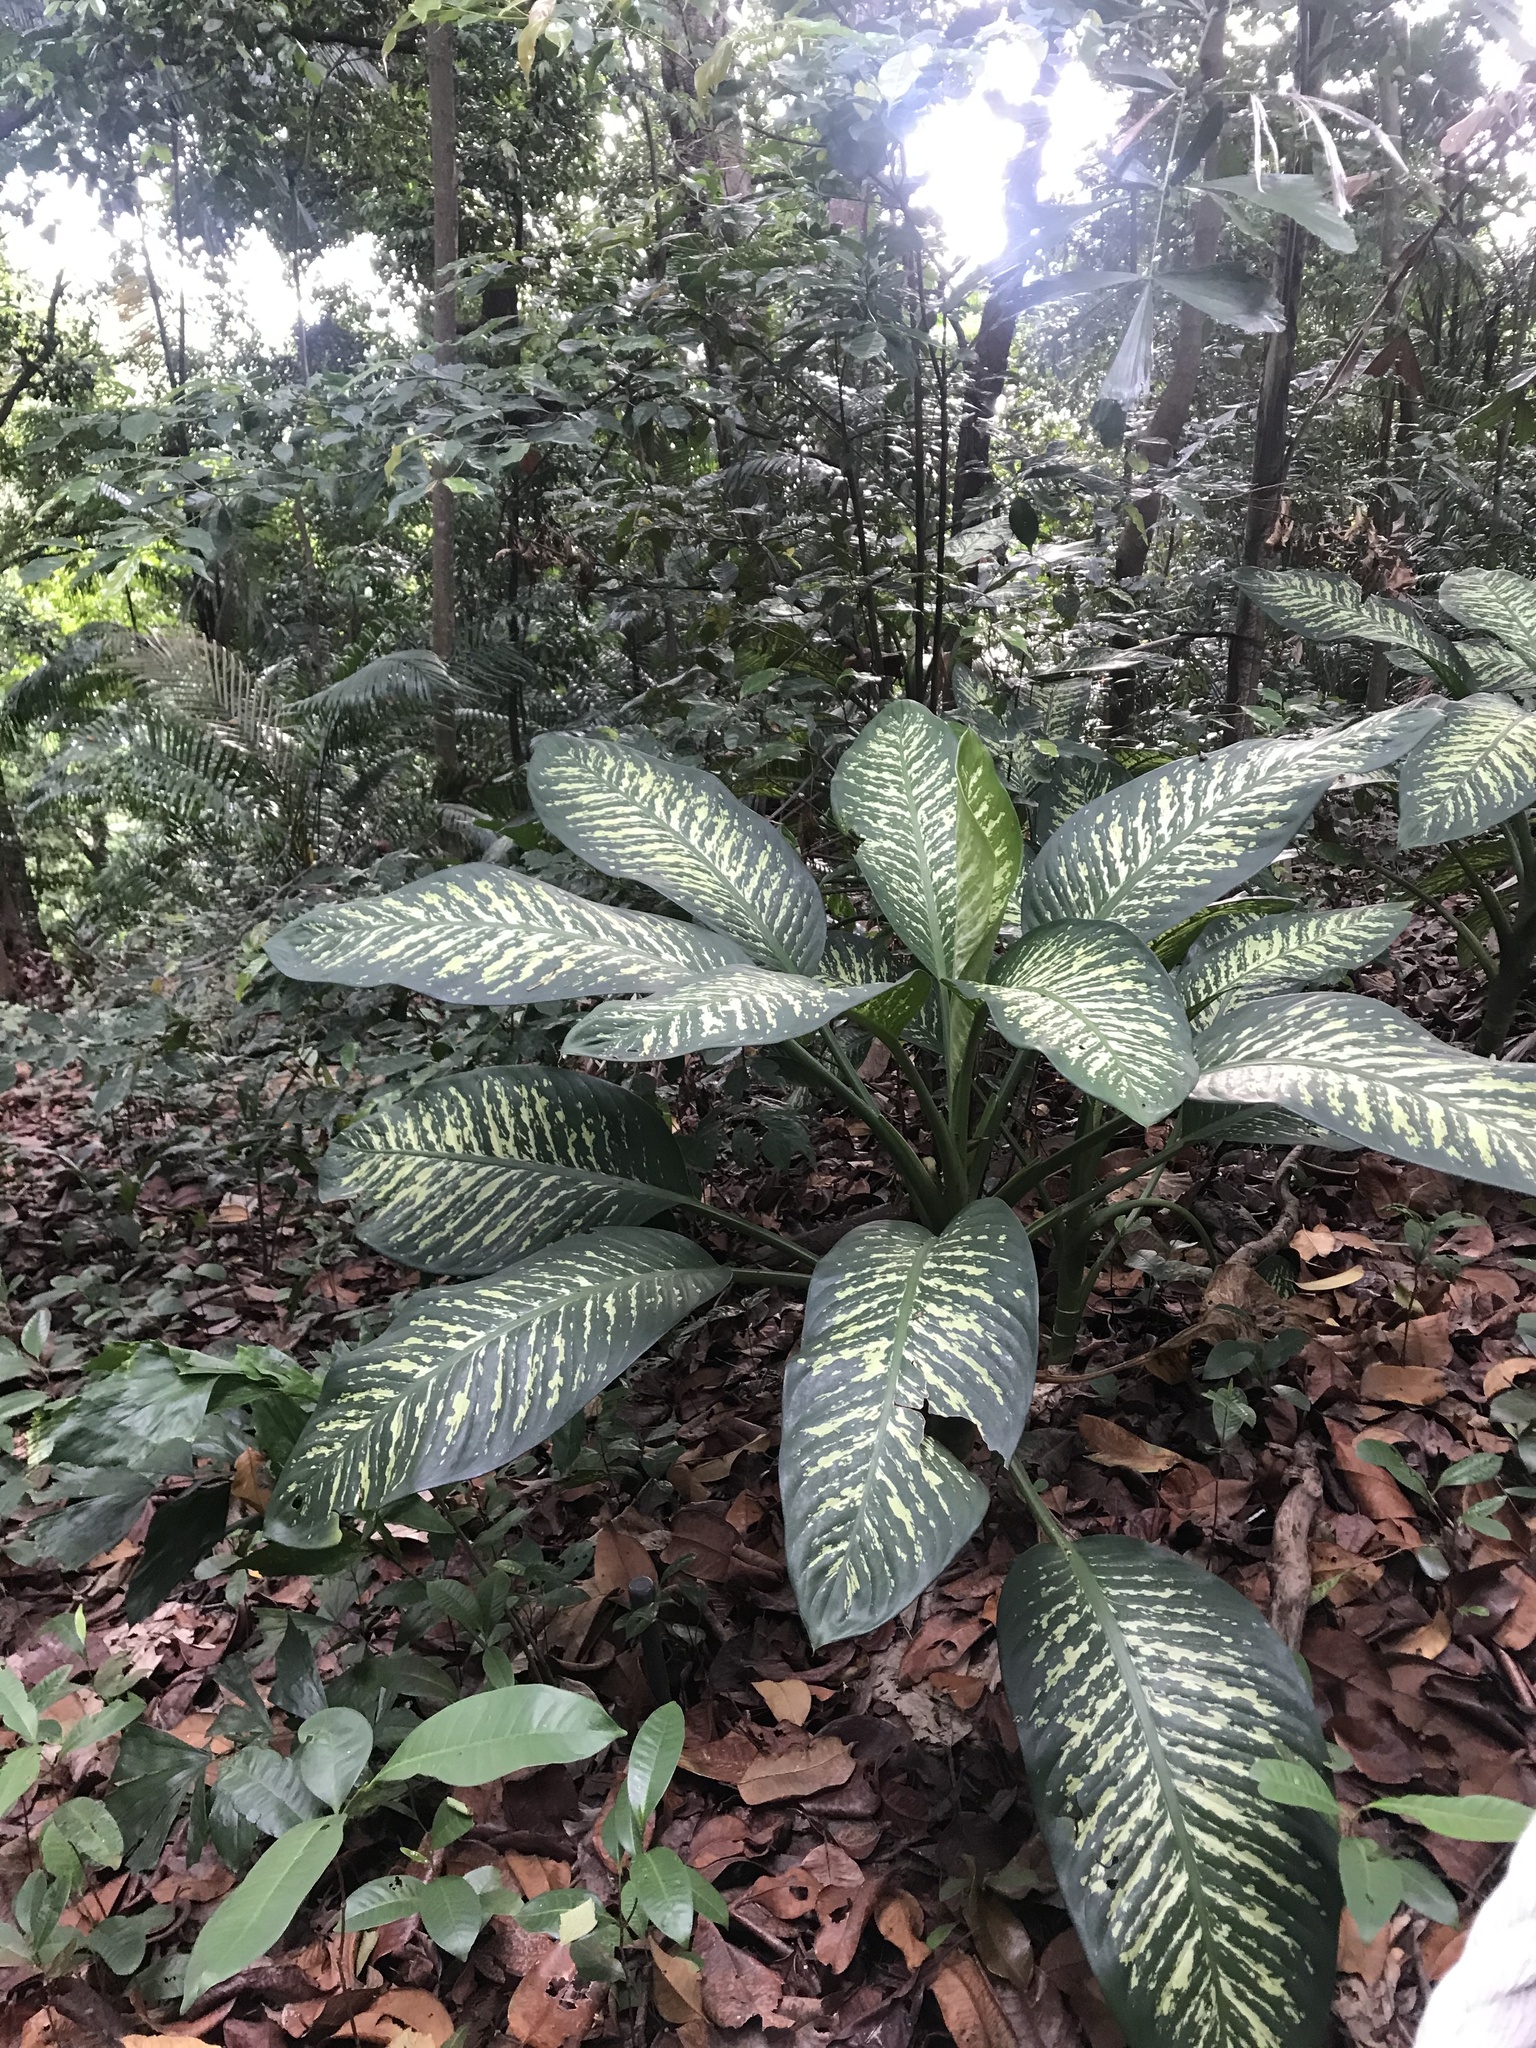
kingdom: Plantae
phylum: Tracheophyta
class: Liliopsida
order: Alismatales
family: Araceae
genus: Dieffenbachia
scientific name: Dieffenbachia seguine
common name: Dumbcane
